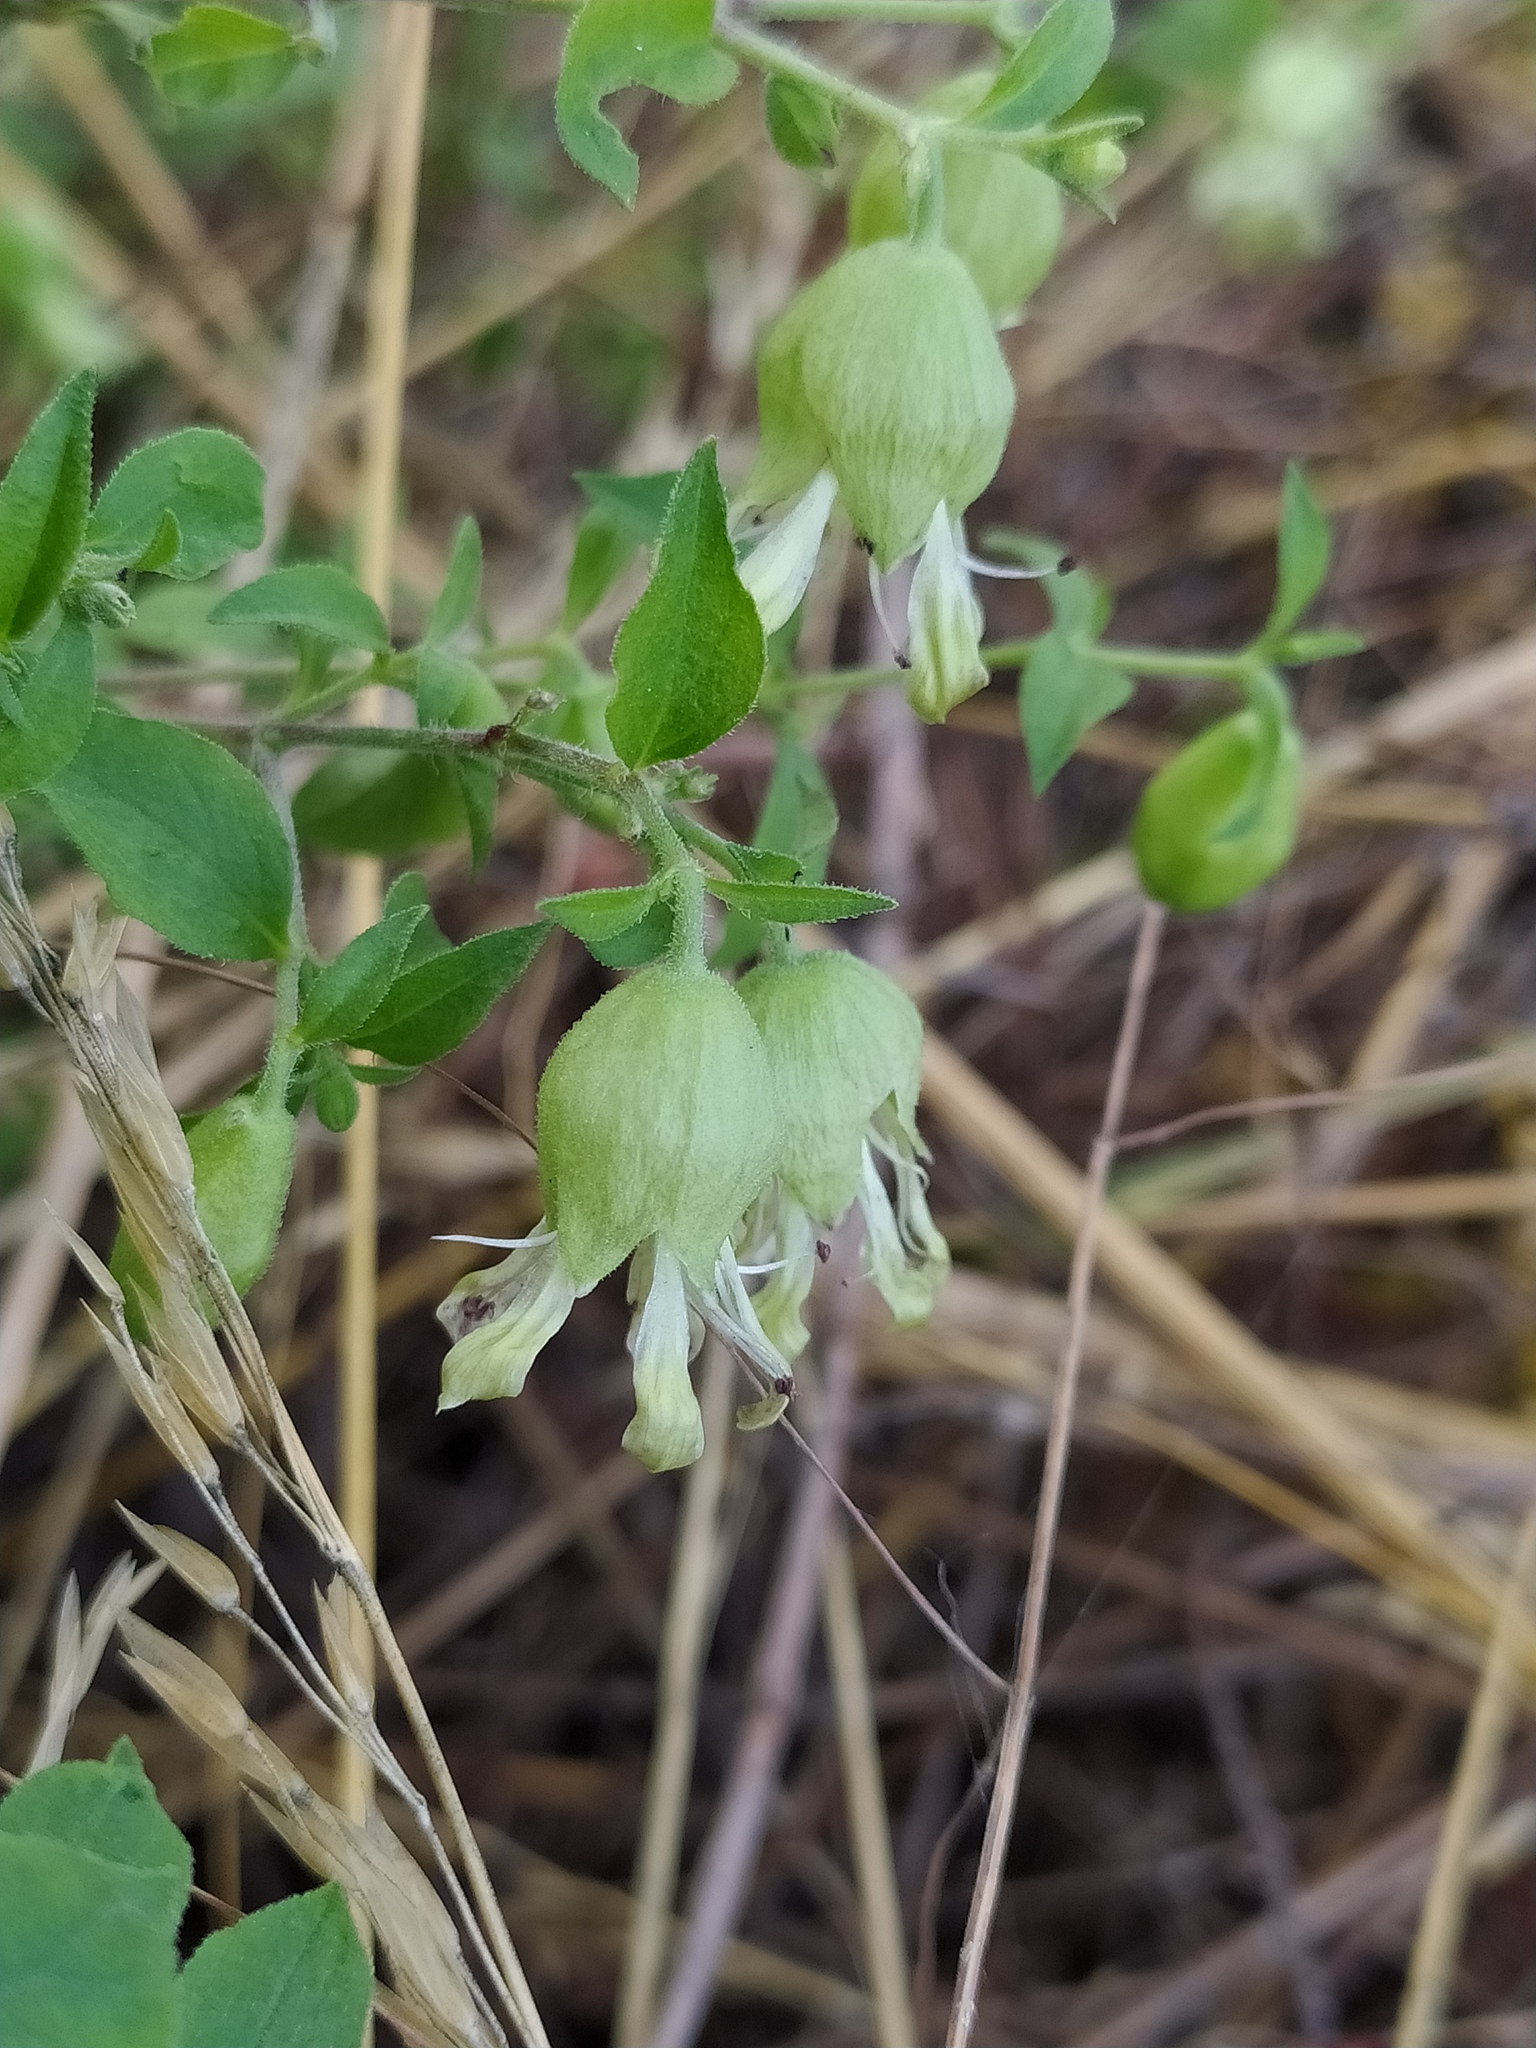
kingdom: Plantae
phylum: Tracheophyta
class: Magnoliopsida
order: Caryophyllales
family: Caryophyllaceae
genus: Silene
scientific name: Silene baccifera
